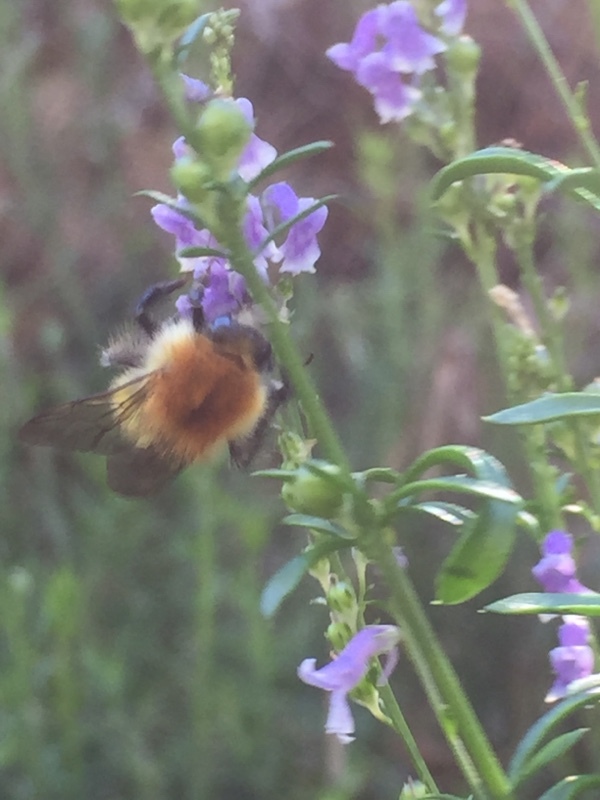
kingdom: Plantae
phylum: Tracheophyta
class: Magnoliopsida
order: Lamiales
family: Plantaginaceae
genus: Anarrhinum
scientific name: Anarrhinum bellidifolium
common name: Daisy-leaved toadflax
